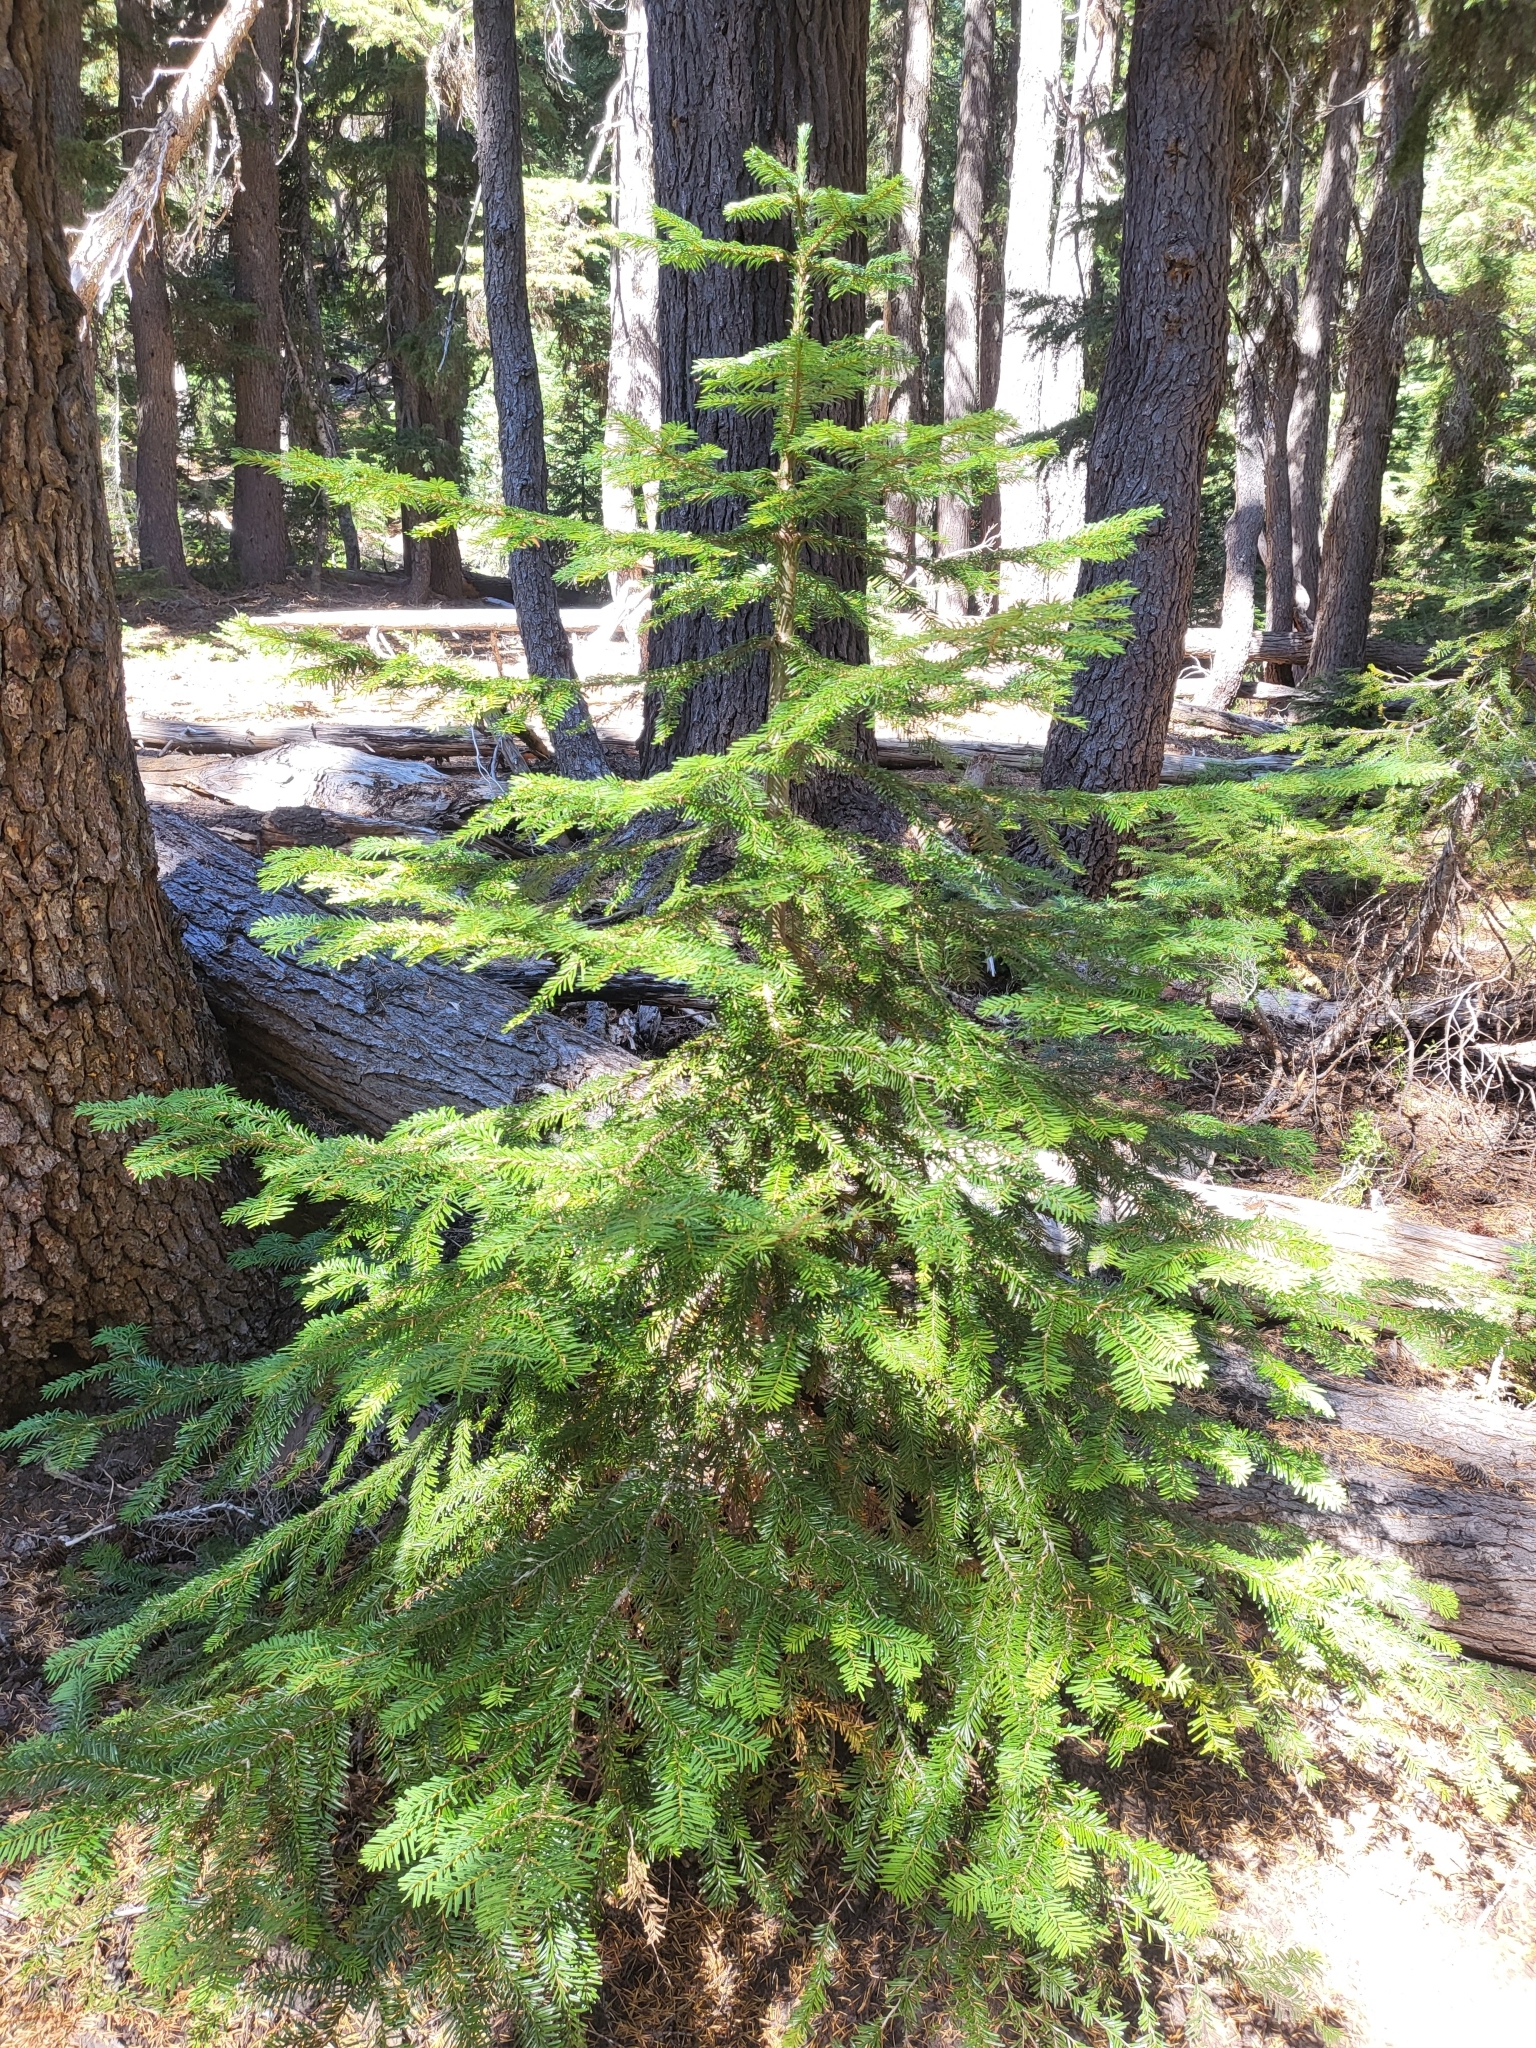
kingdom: Plantae
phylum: Tracheophyta
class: Pinopsida
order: Pinales
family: Pinaceae
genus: Abies
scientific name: Abies amabilis
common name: Pacific silver fir
